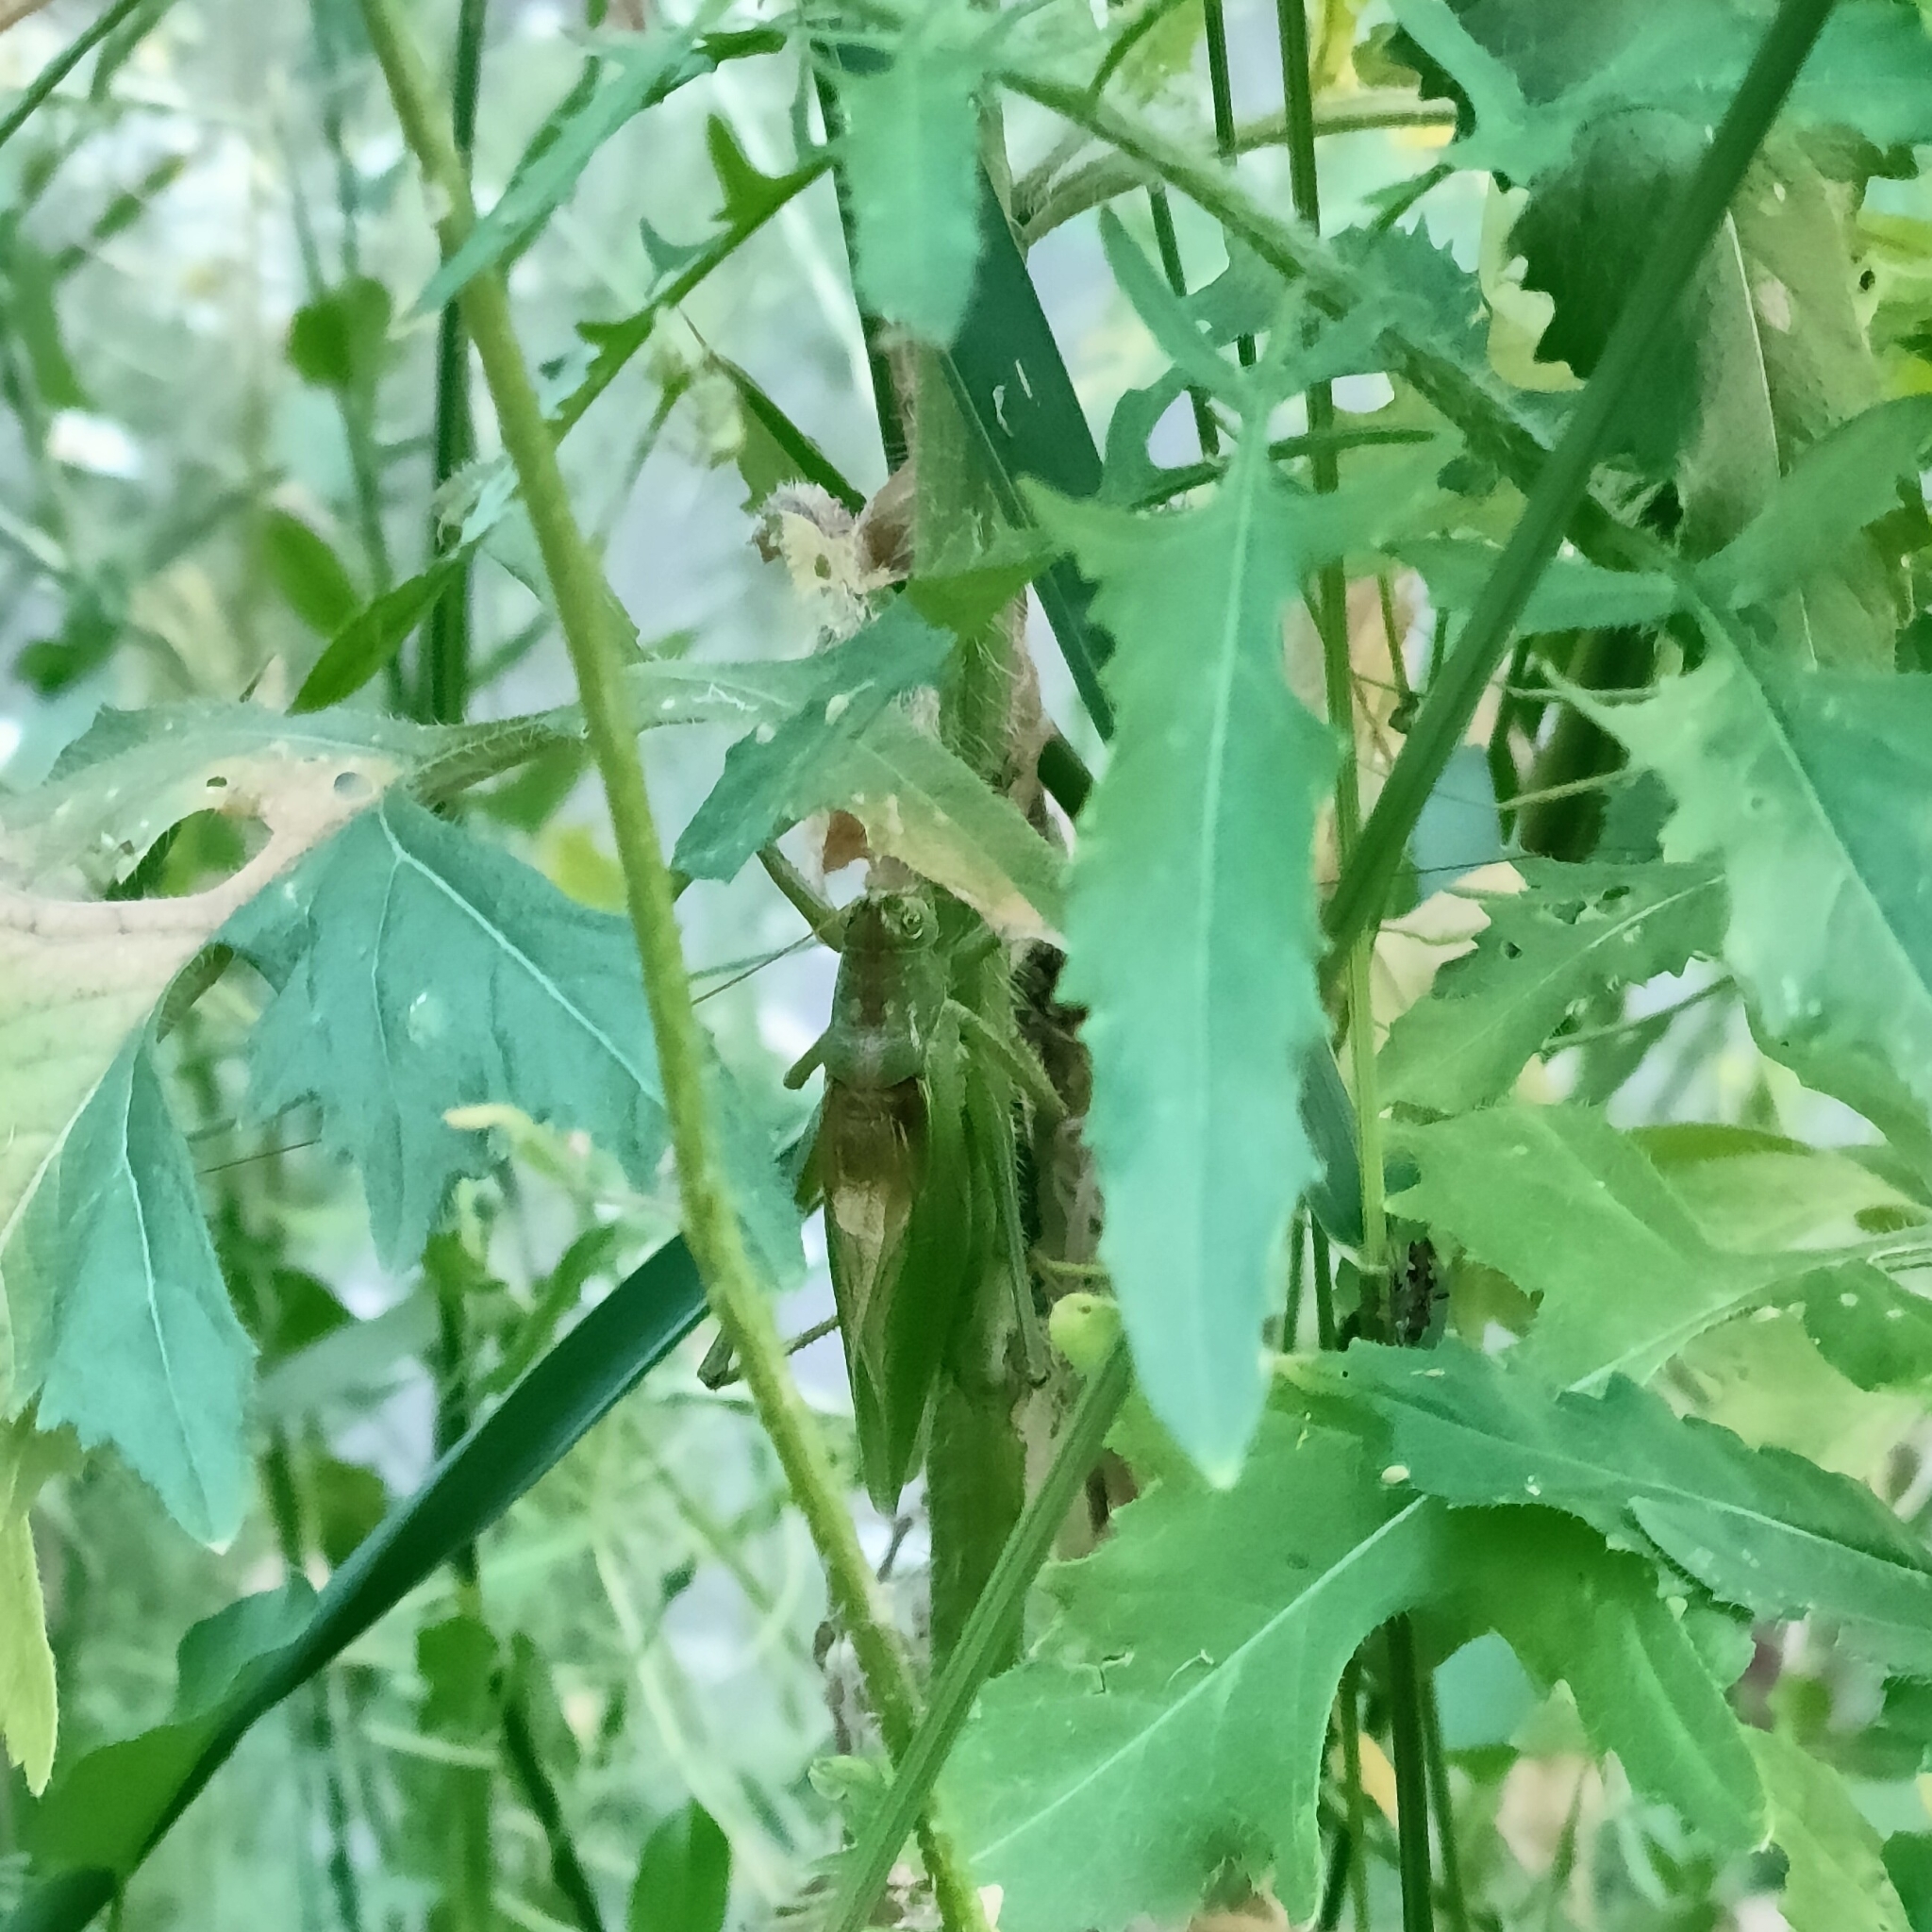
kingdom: Animalia
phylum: Arthropoda
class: Insecta
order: Orthoptera
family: Tettigoniidae
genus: Tettigonia
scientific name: Tettigonia cantans
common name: Upland green bush-cricket
